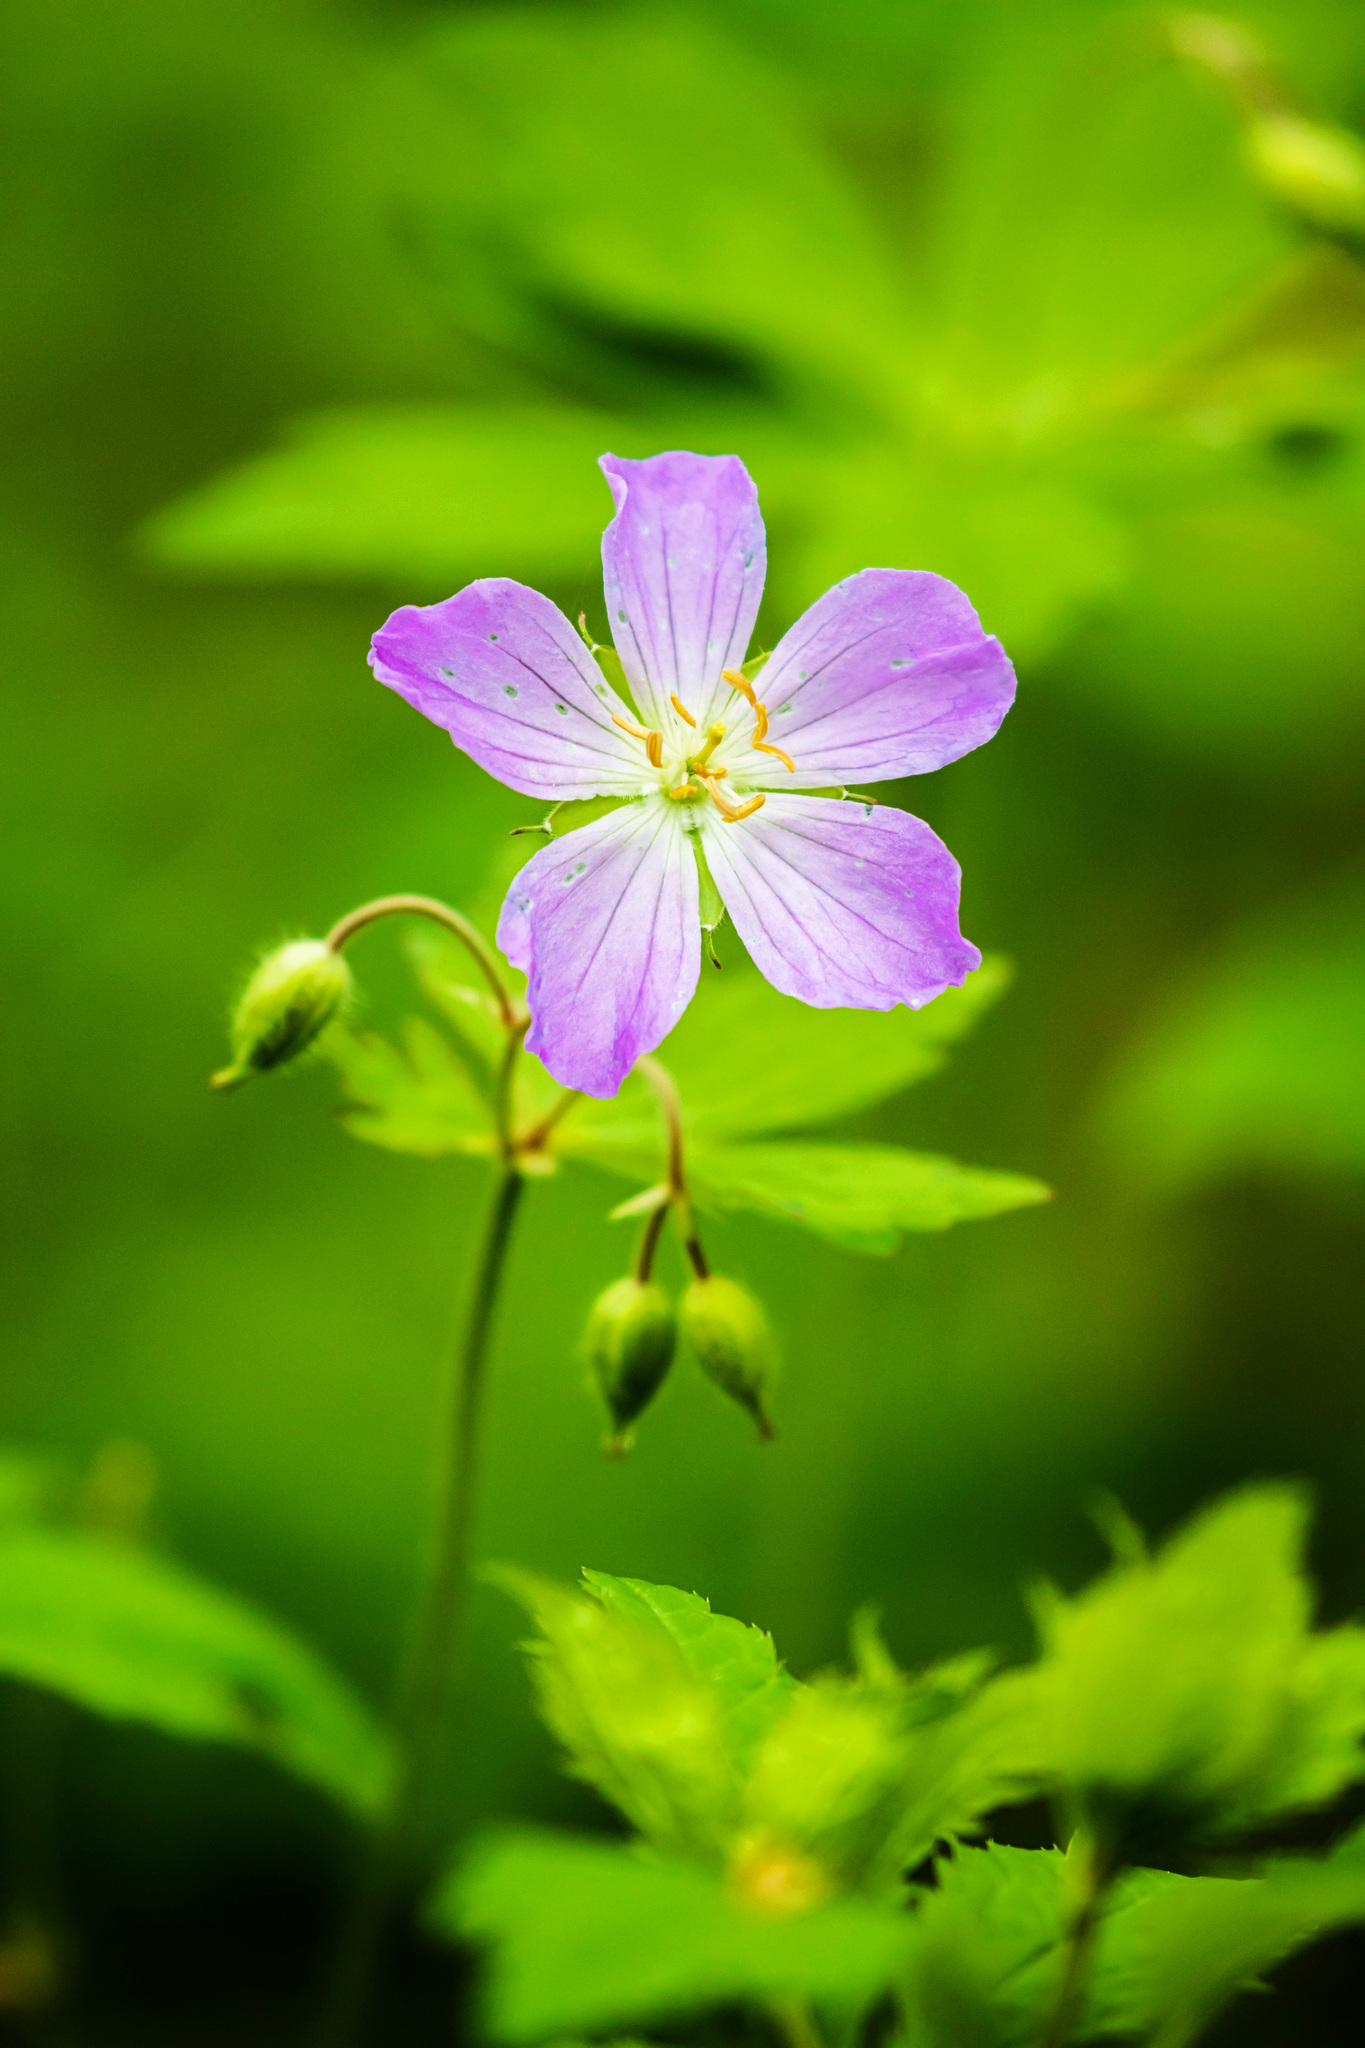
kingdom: Plantae
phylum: Tracheophyta
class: Magnoliopsida
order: Geraniales
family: Geraniaceae
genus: Geranium
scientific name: Geranium maculatum
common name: Spotted geranium
